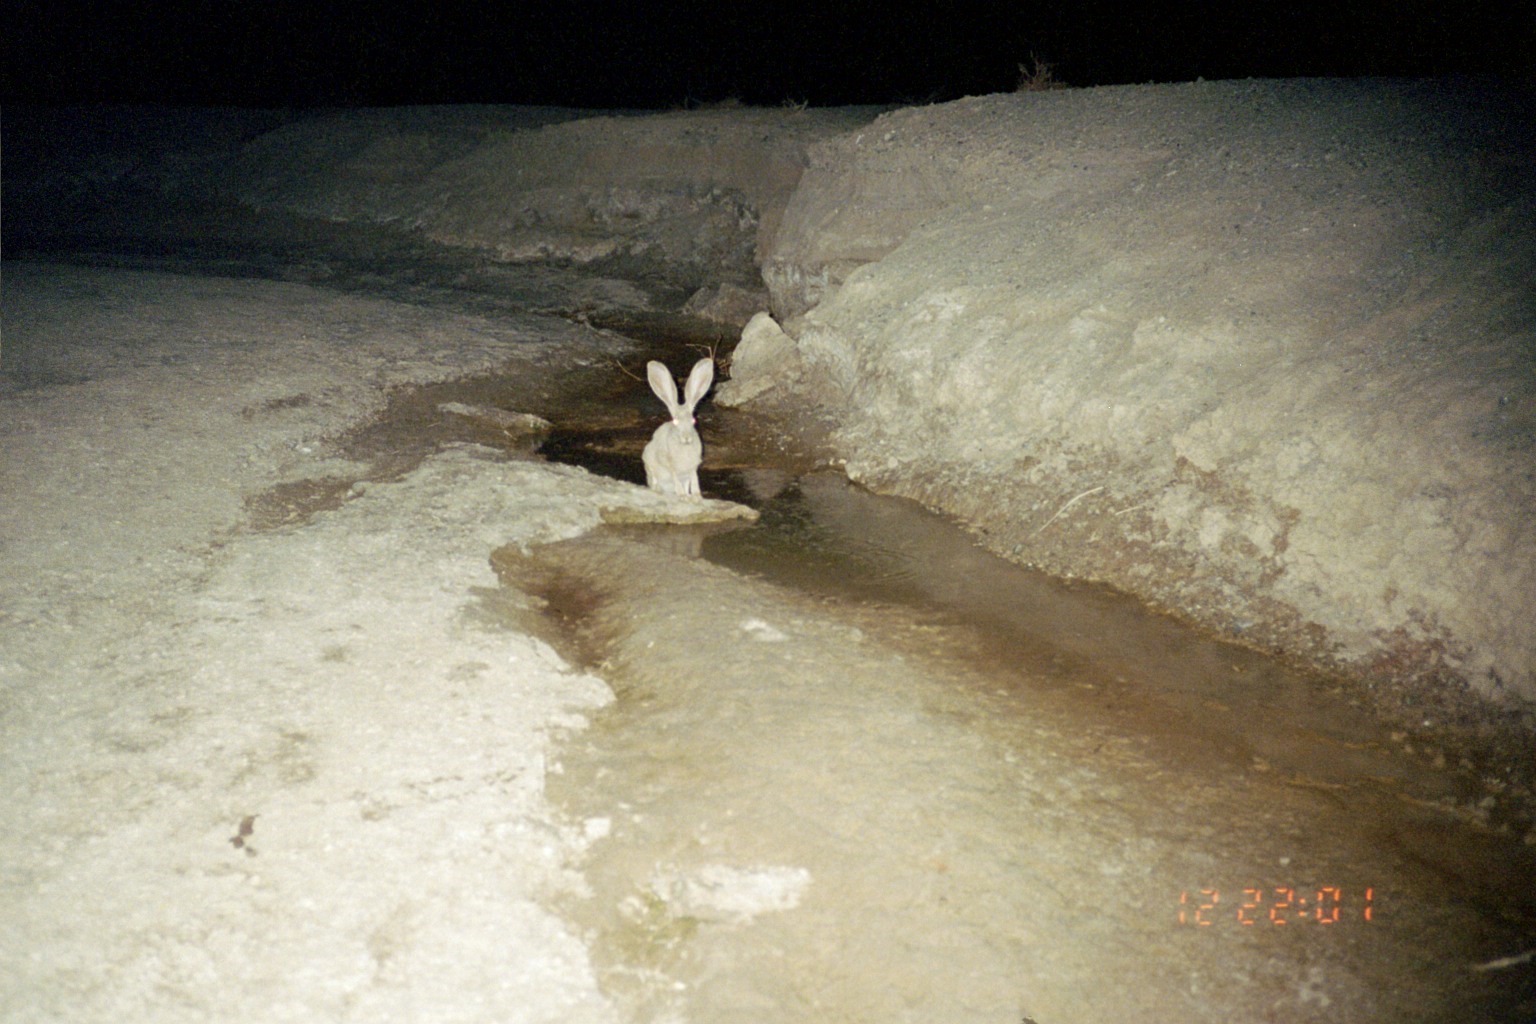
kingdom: Animalia
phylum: Chordata
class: Mammalia
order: Lagomorpha
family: Leporidae
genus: Lepus
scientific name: Lepus californicus
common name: Black-tailed jackrabbit
